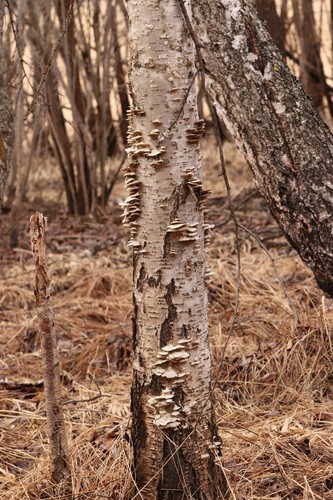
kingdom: Fungi
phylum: Basidiomycota
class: Agaricomycetes
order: Hymenochaetales
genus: Trichaptum
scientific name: Trichaptum biforme
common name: Violet-toothed polypore
